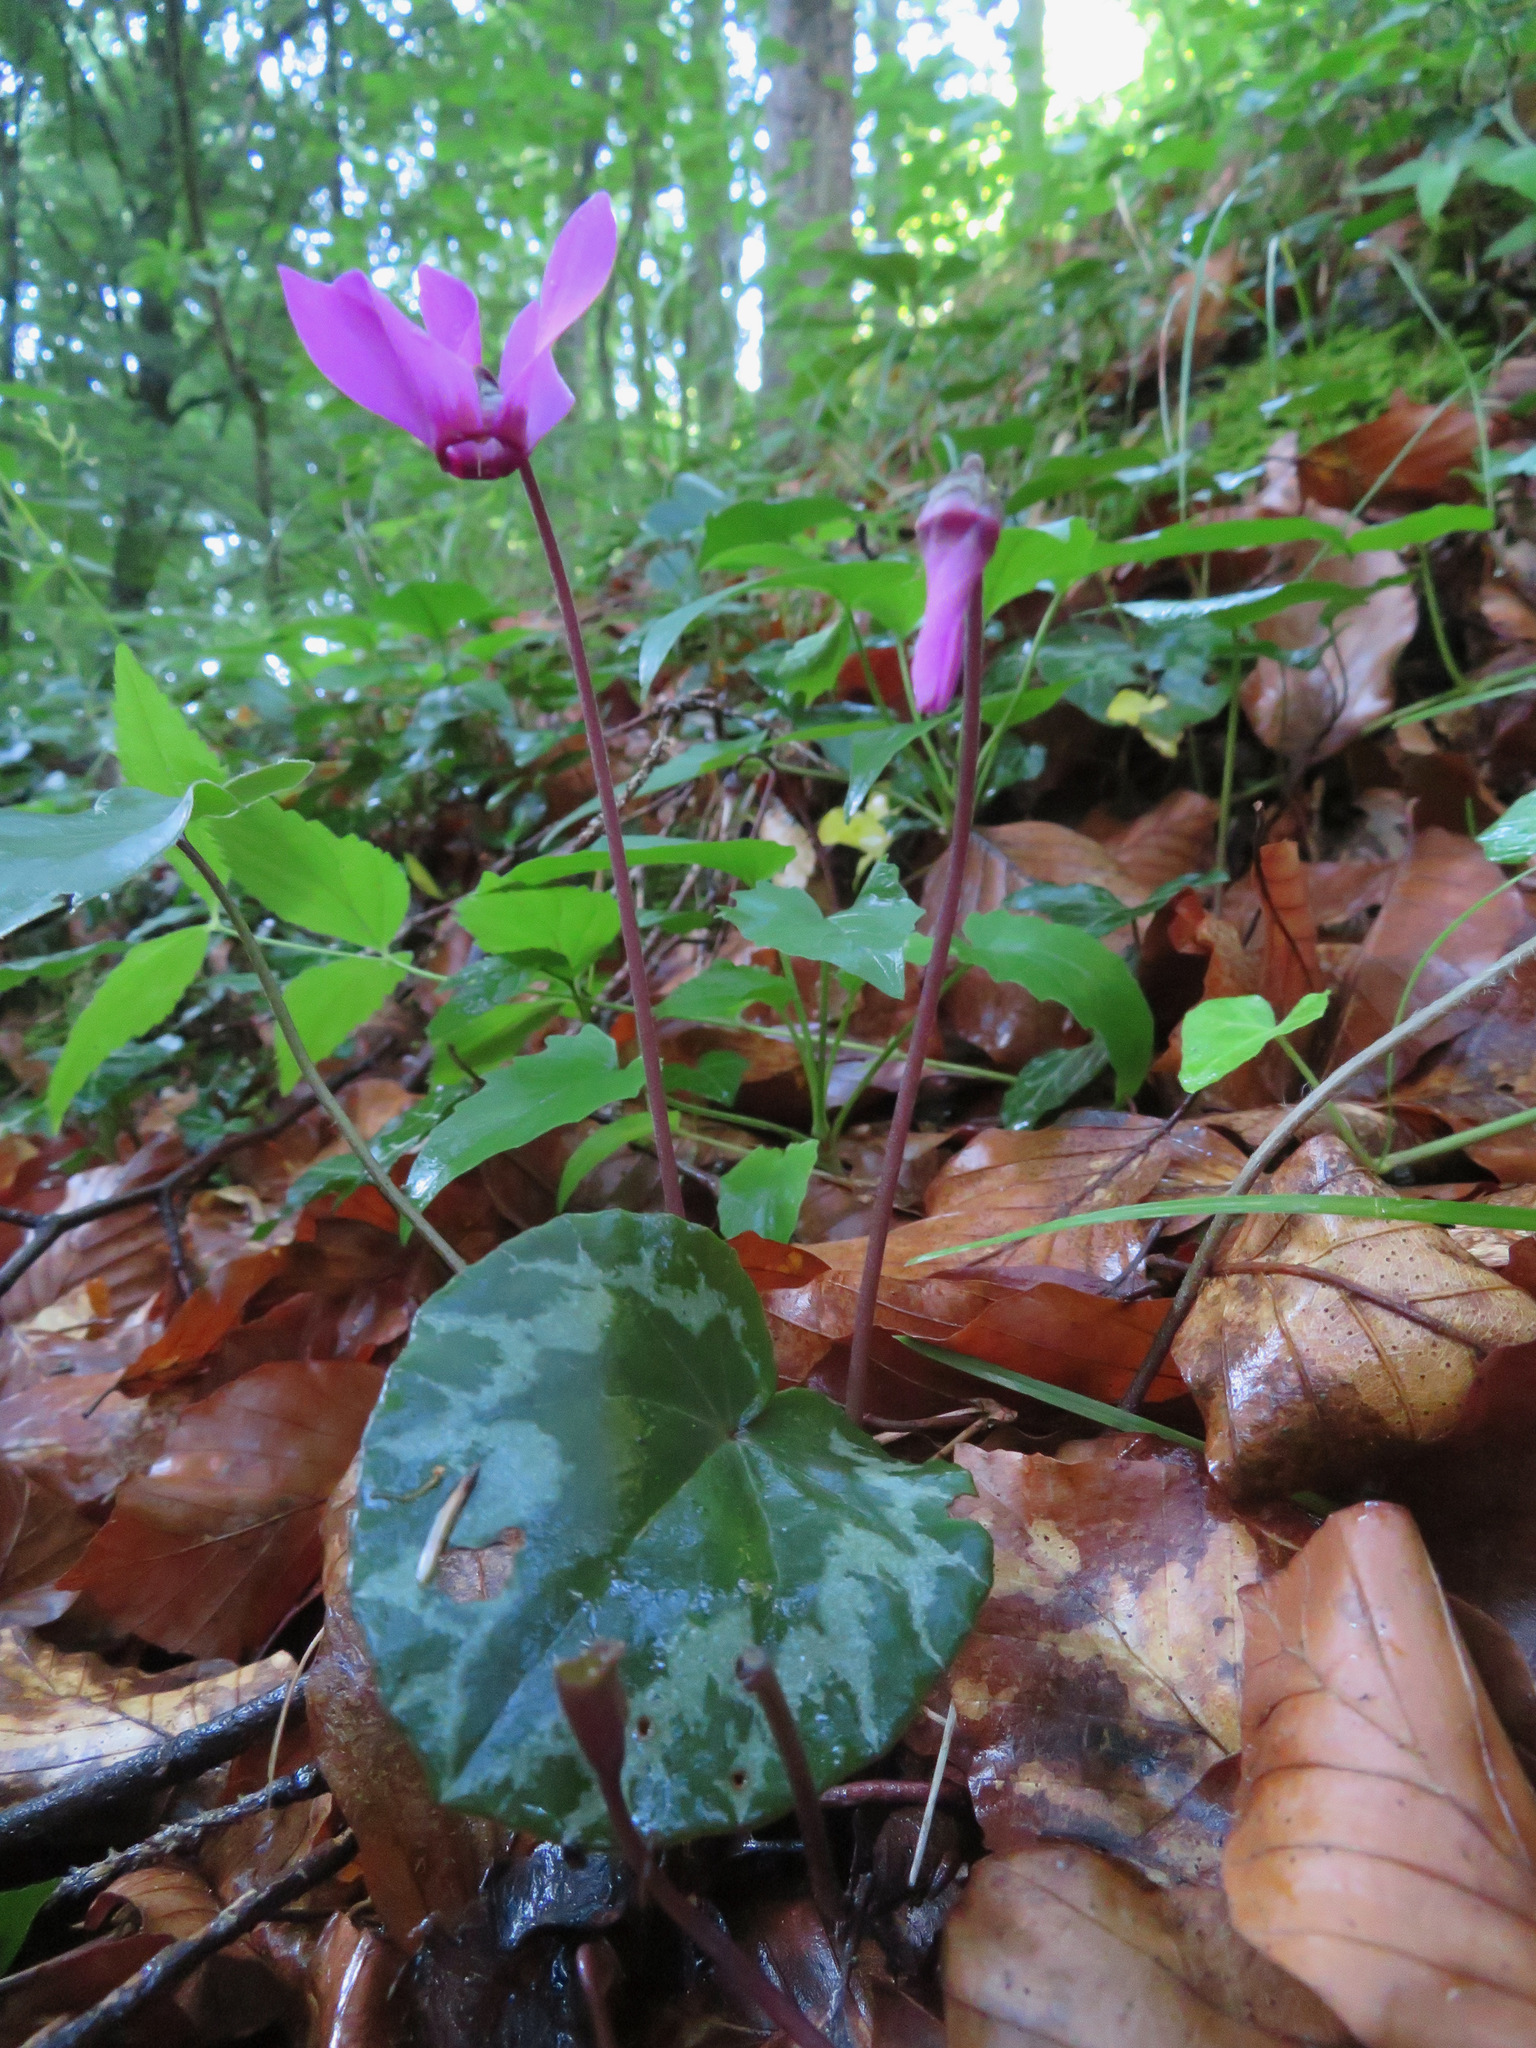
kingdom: Plantae
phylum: Tracheophyta
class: Magnoliopsida
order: Ericales
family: Primulaceae
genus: Cyclamen
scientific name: Cyclamen purpurascens
